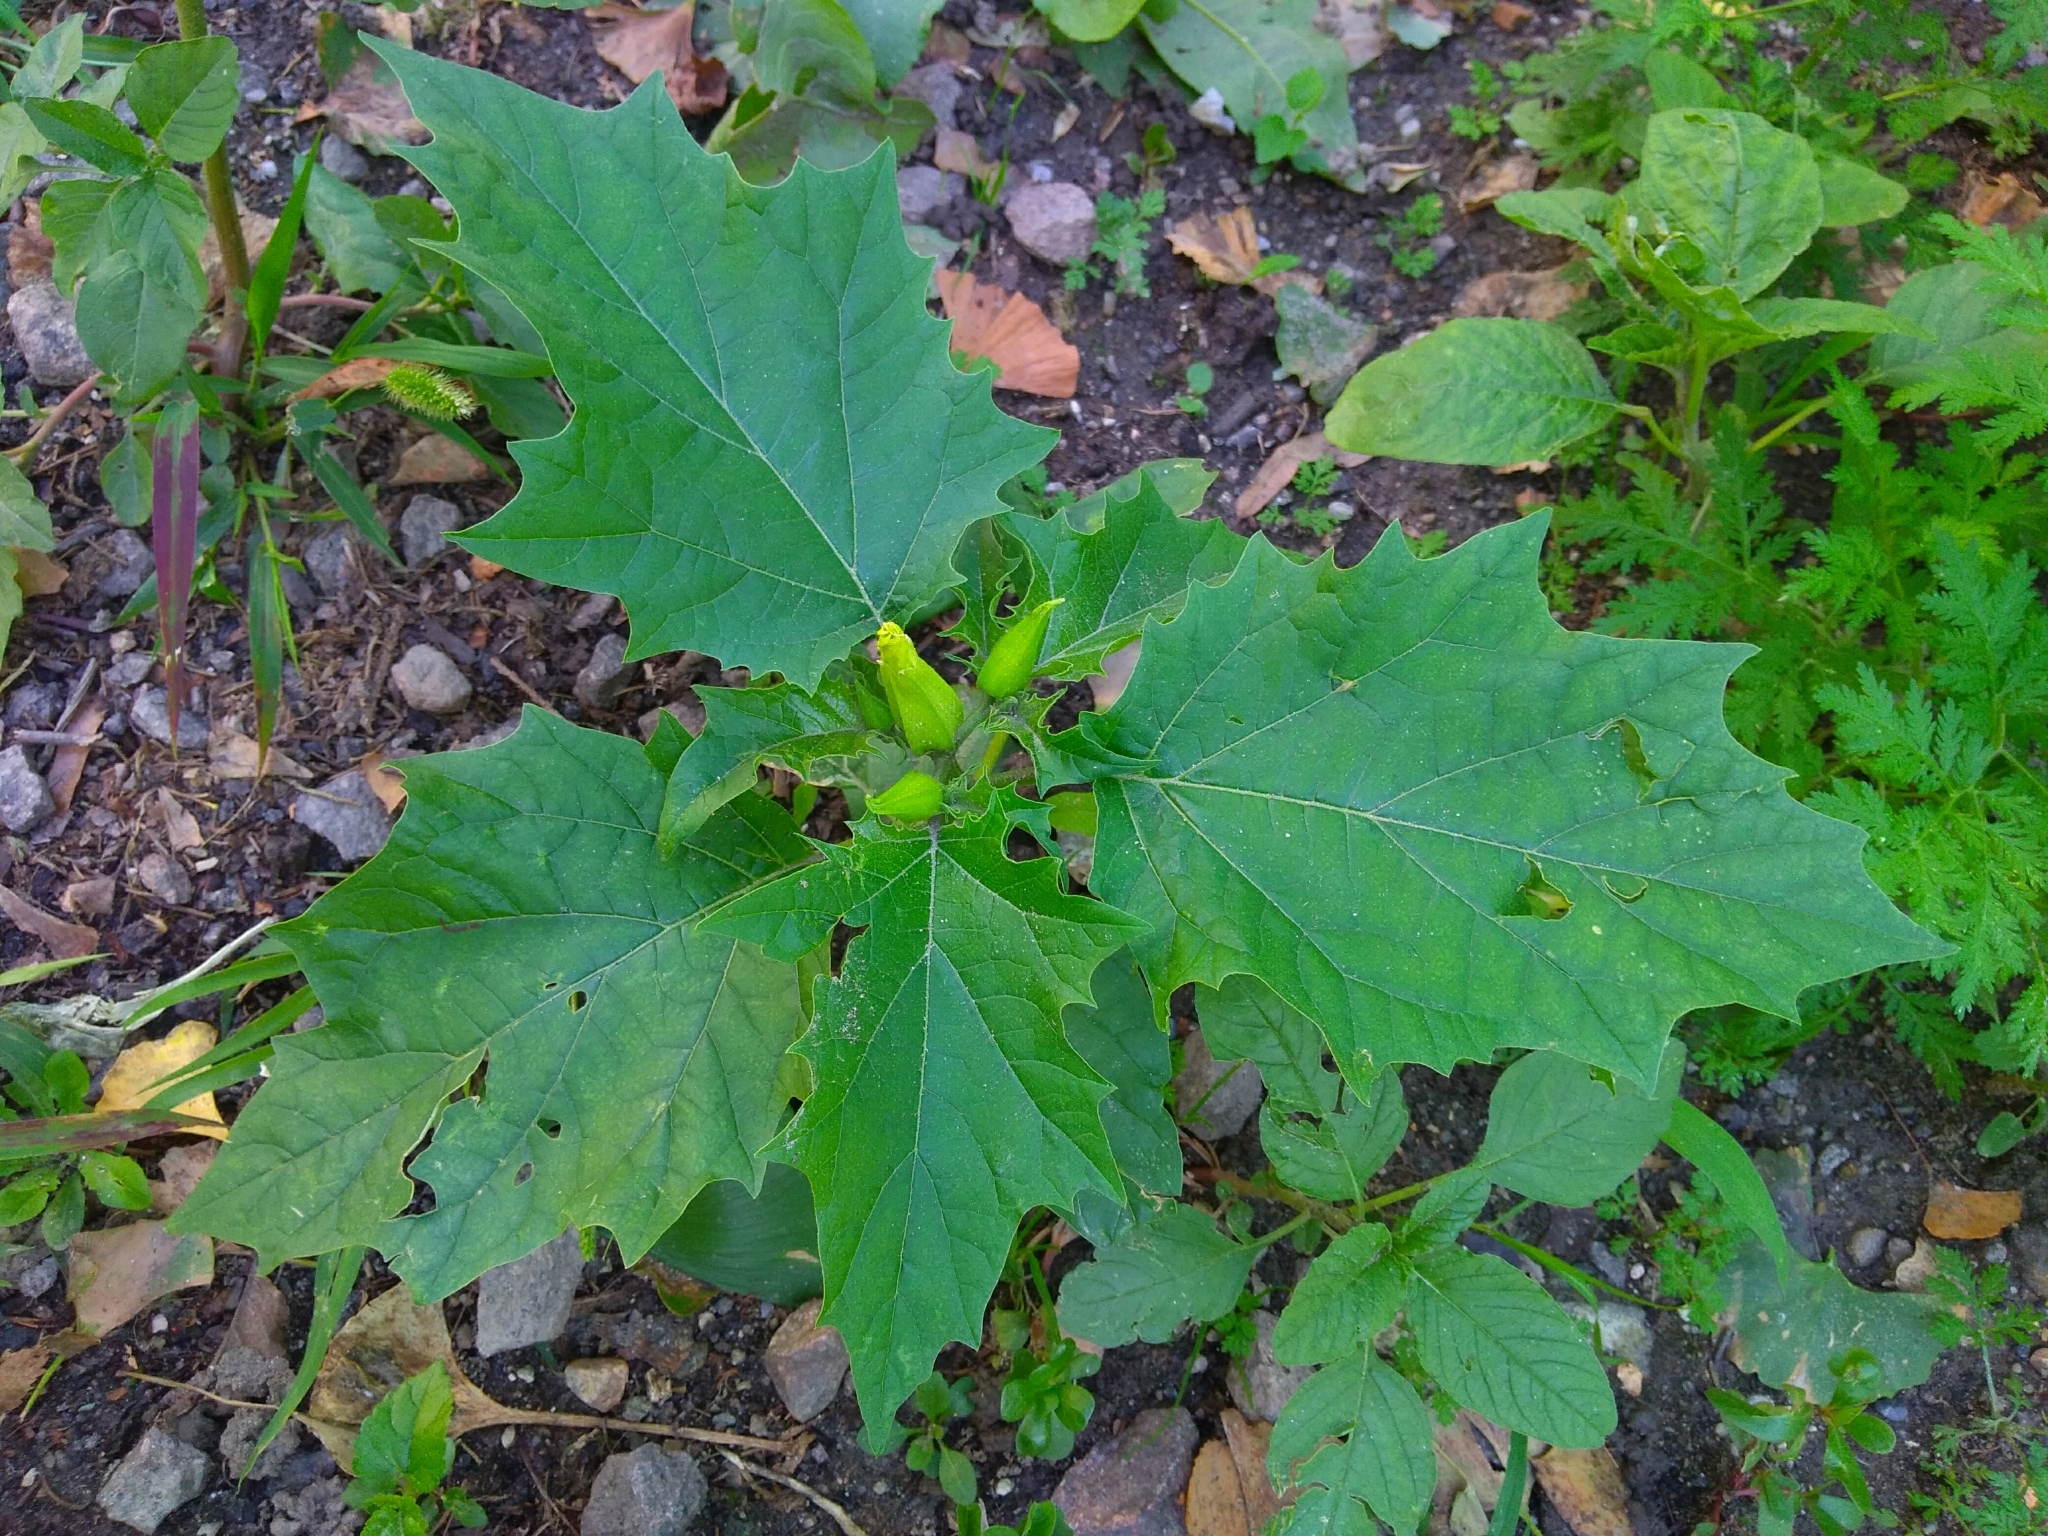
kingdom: Plantae
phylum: Tracheophyta
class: Magnoliopsida
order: Solanales
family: Solanaceae
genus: Datura
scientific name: Datura stramonium
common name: Thorn-apple
